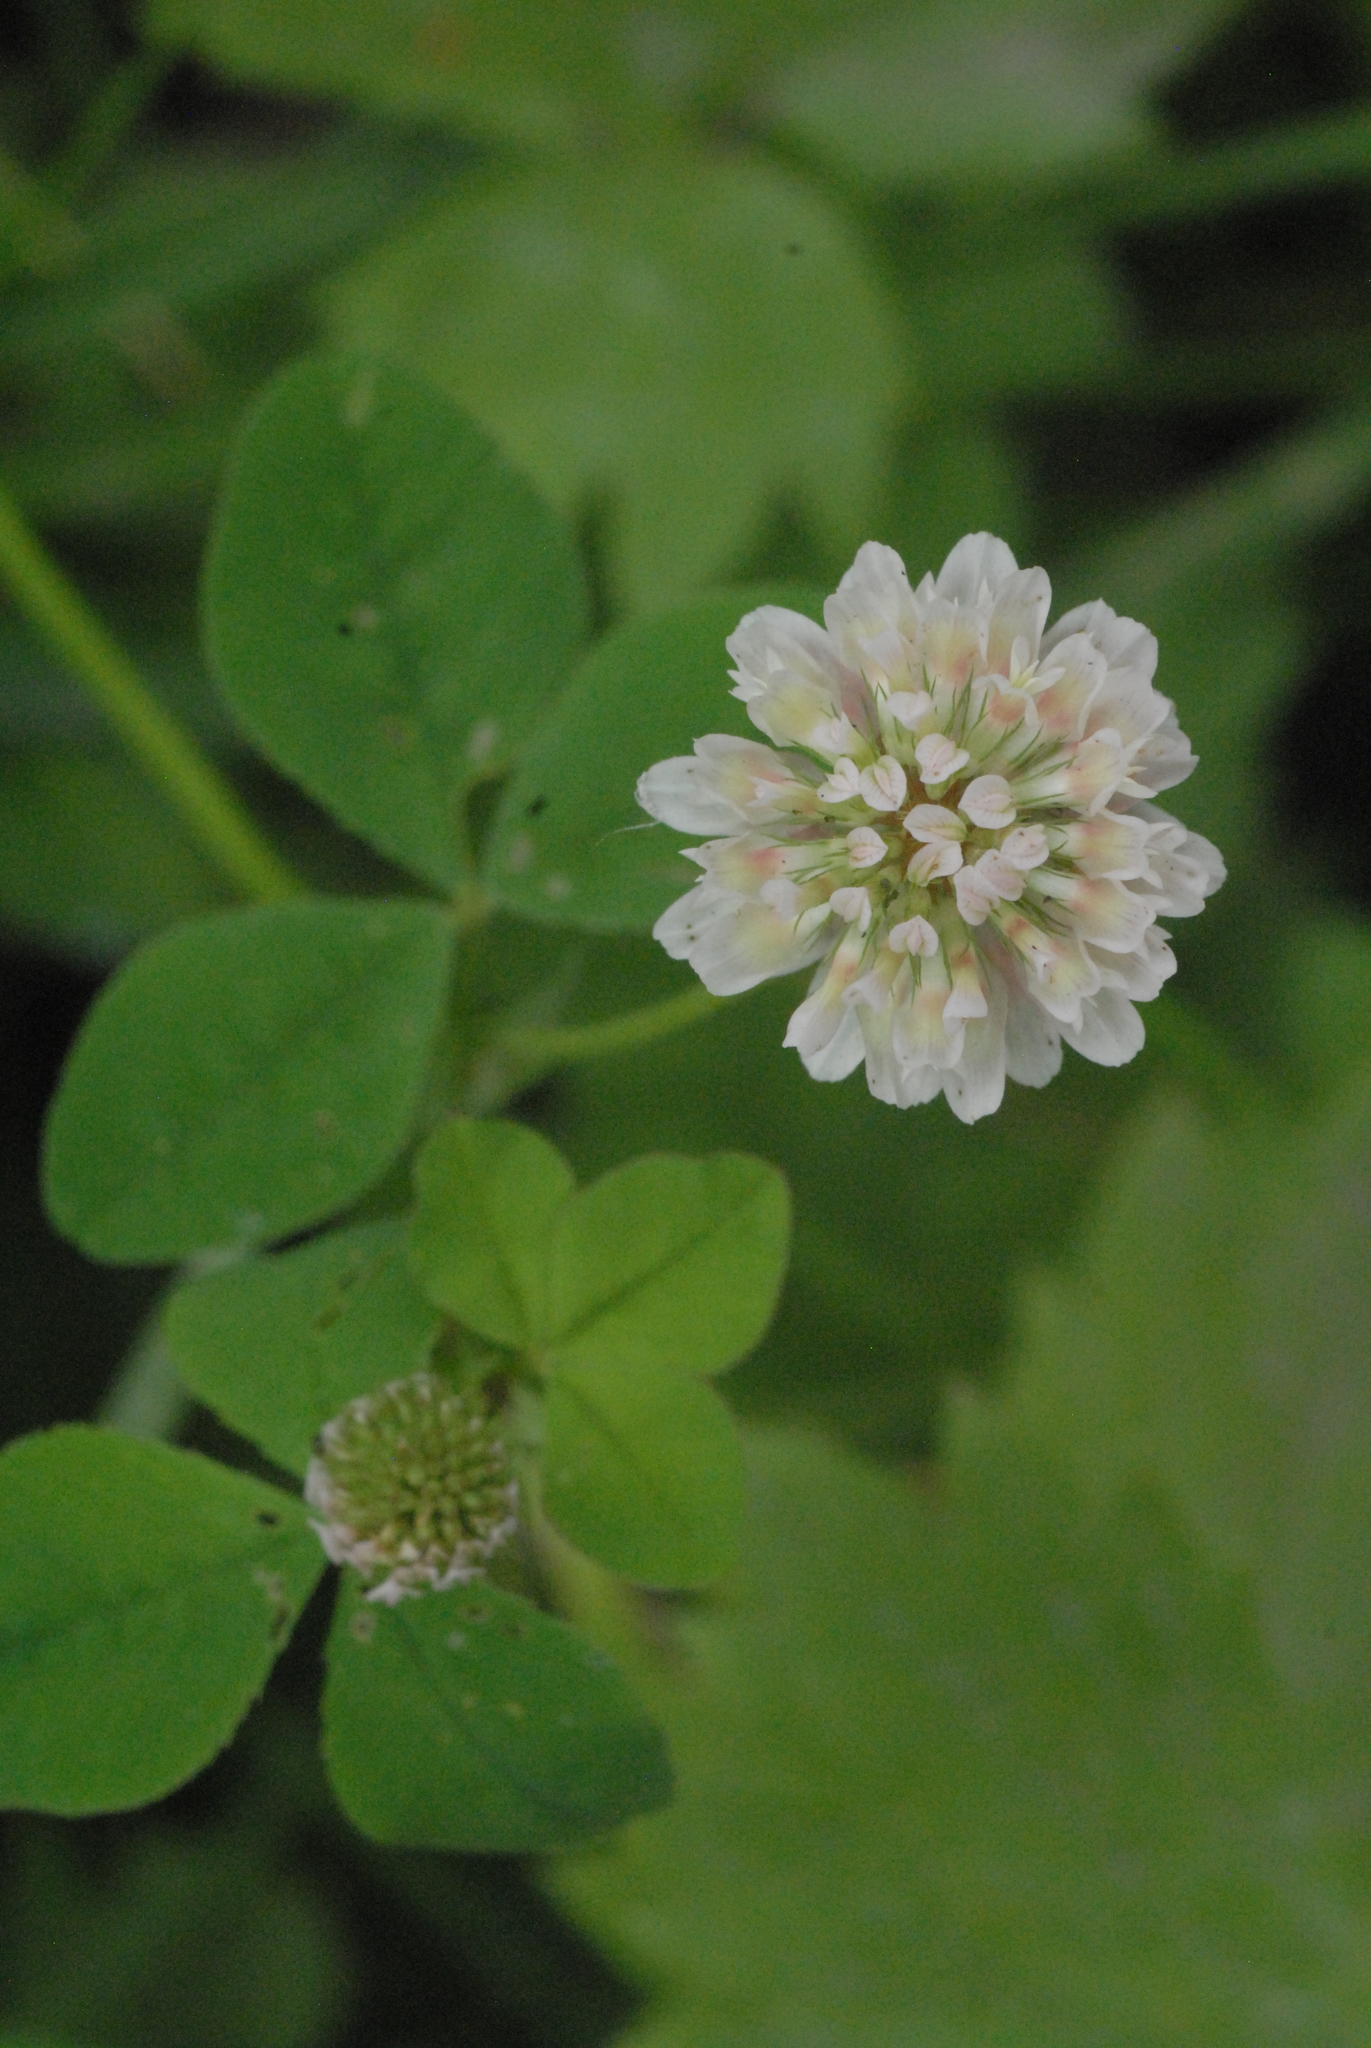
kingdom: Plantae
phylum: Tracheophyta
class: Magnoliopsida
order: Fabales
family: Fabaceae
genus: Trifolium
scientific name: Trifolium hybridum
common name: Alsike clover
